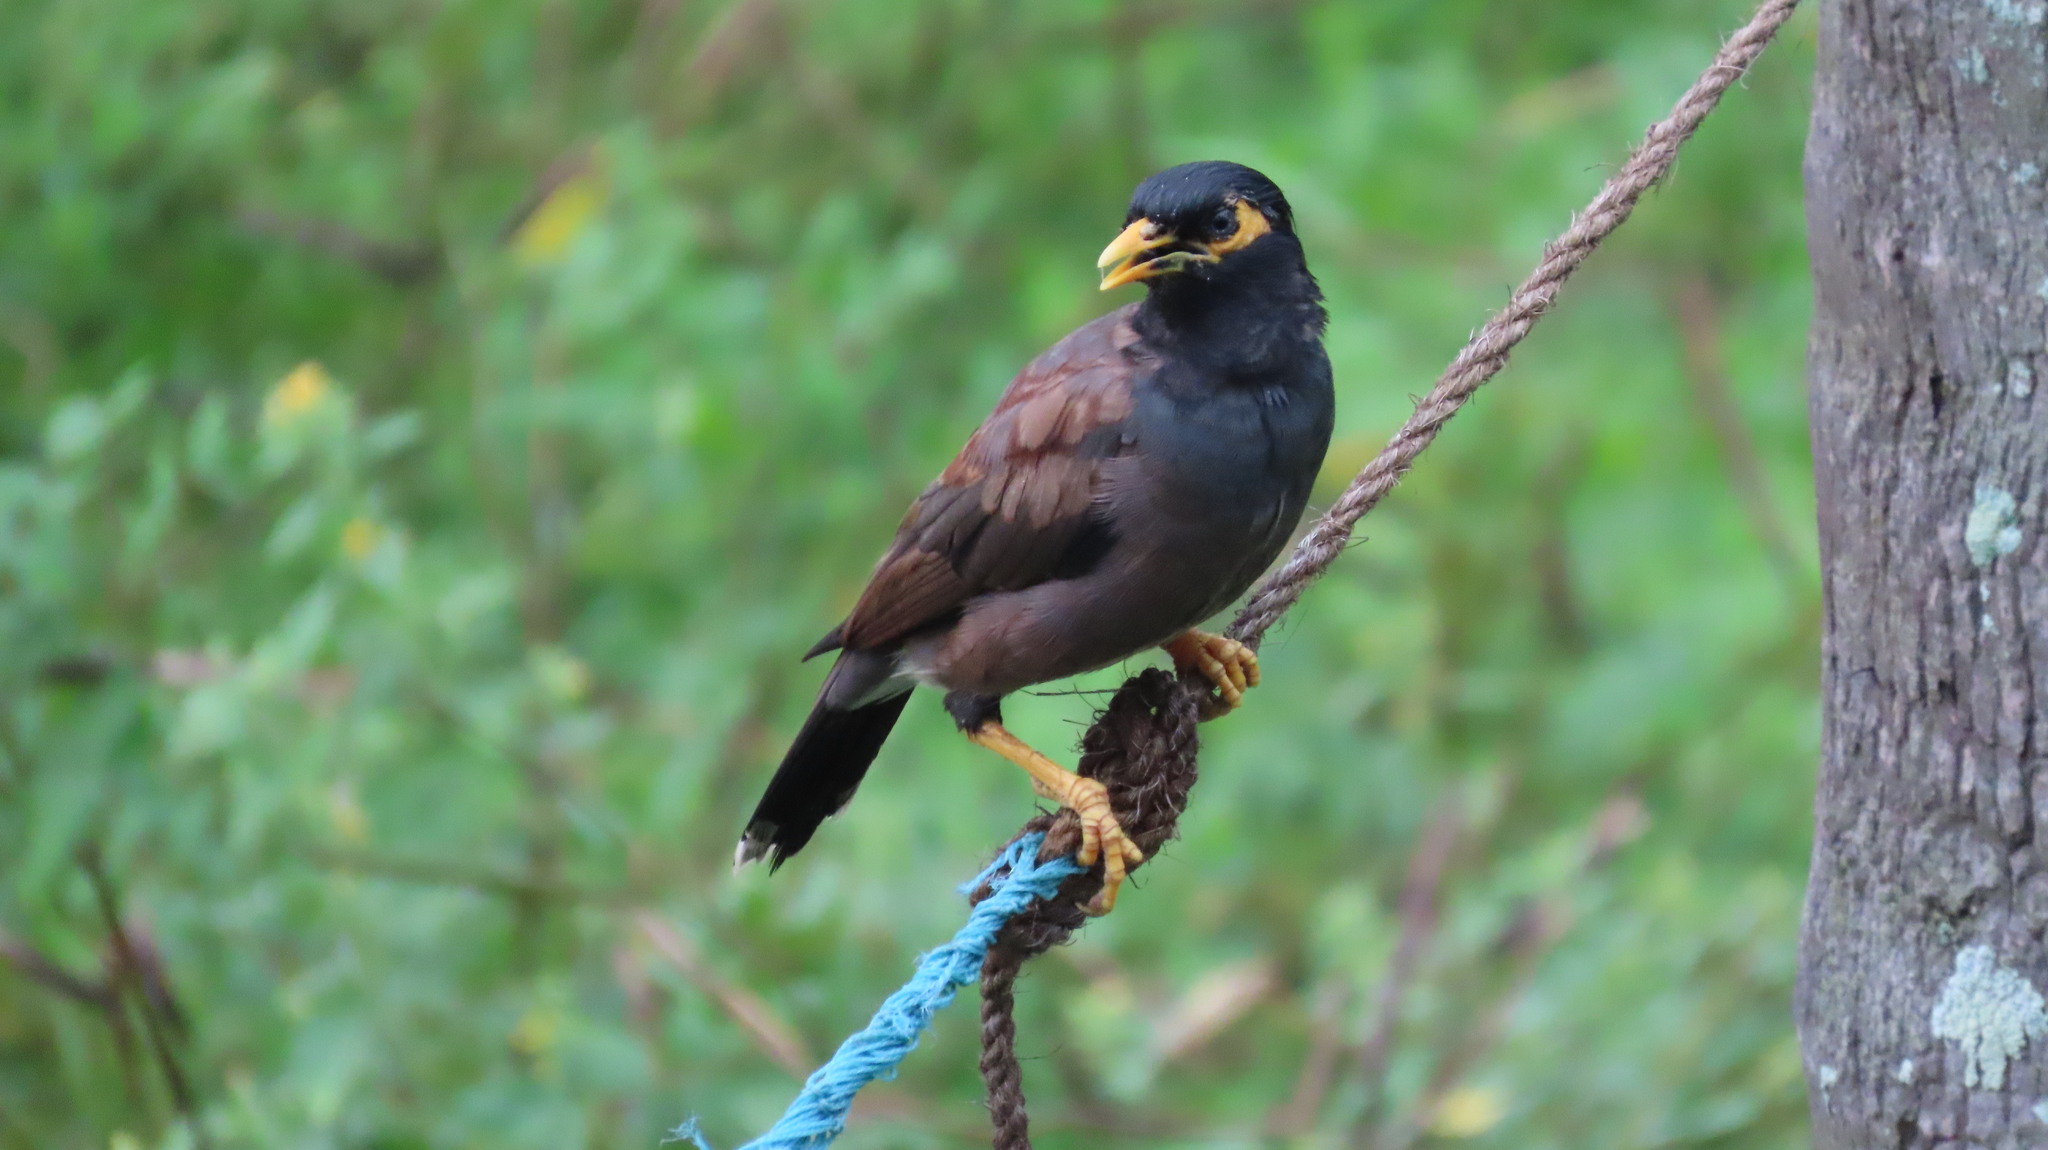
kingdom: Animalia
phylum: Chordata
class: Aves
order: Passeriformes
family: Sturnidae
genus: Acridotheres
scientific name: Acridotheres tristis
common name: Common myna
